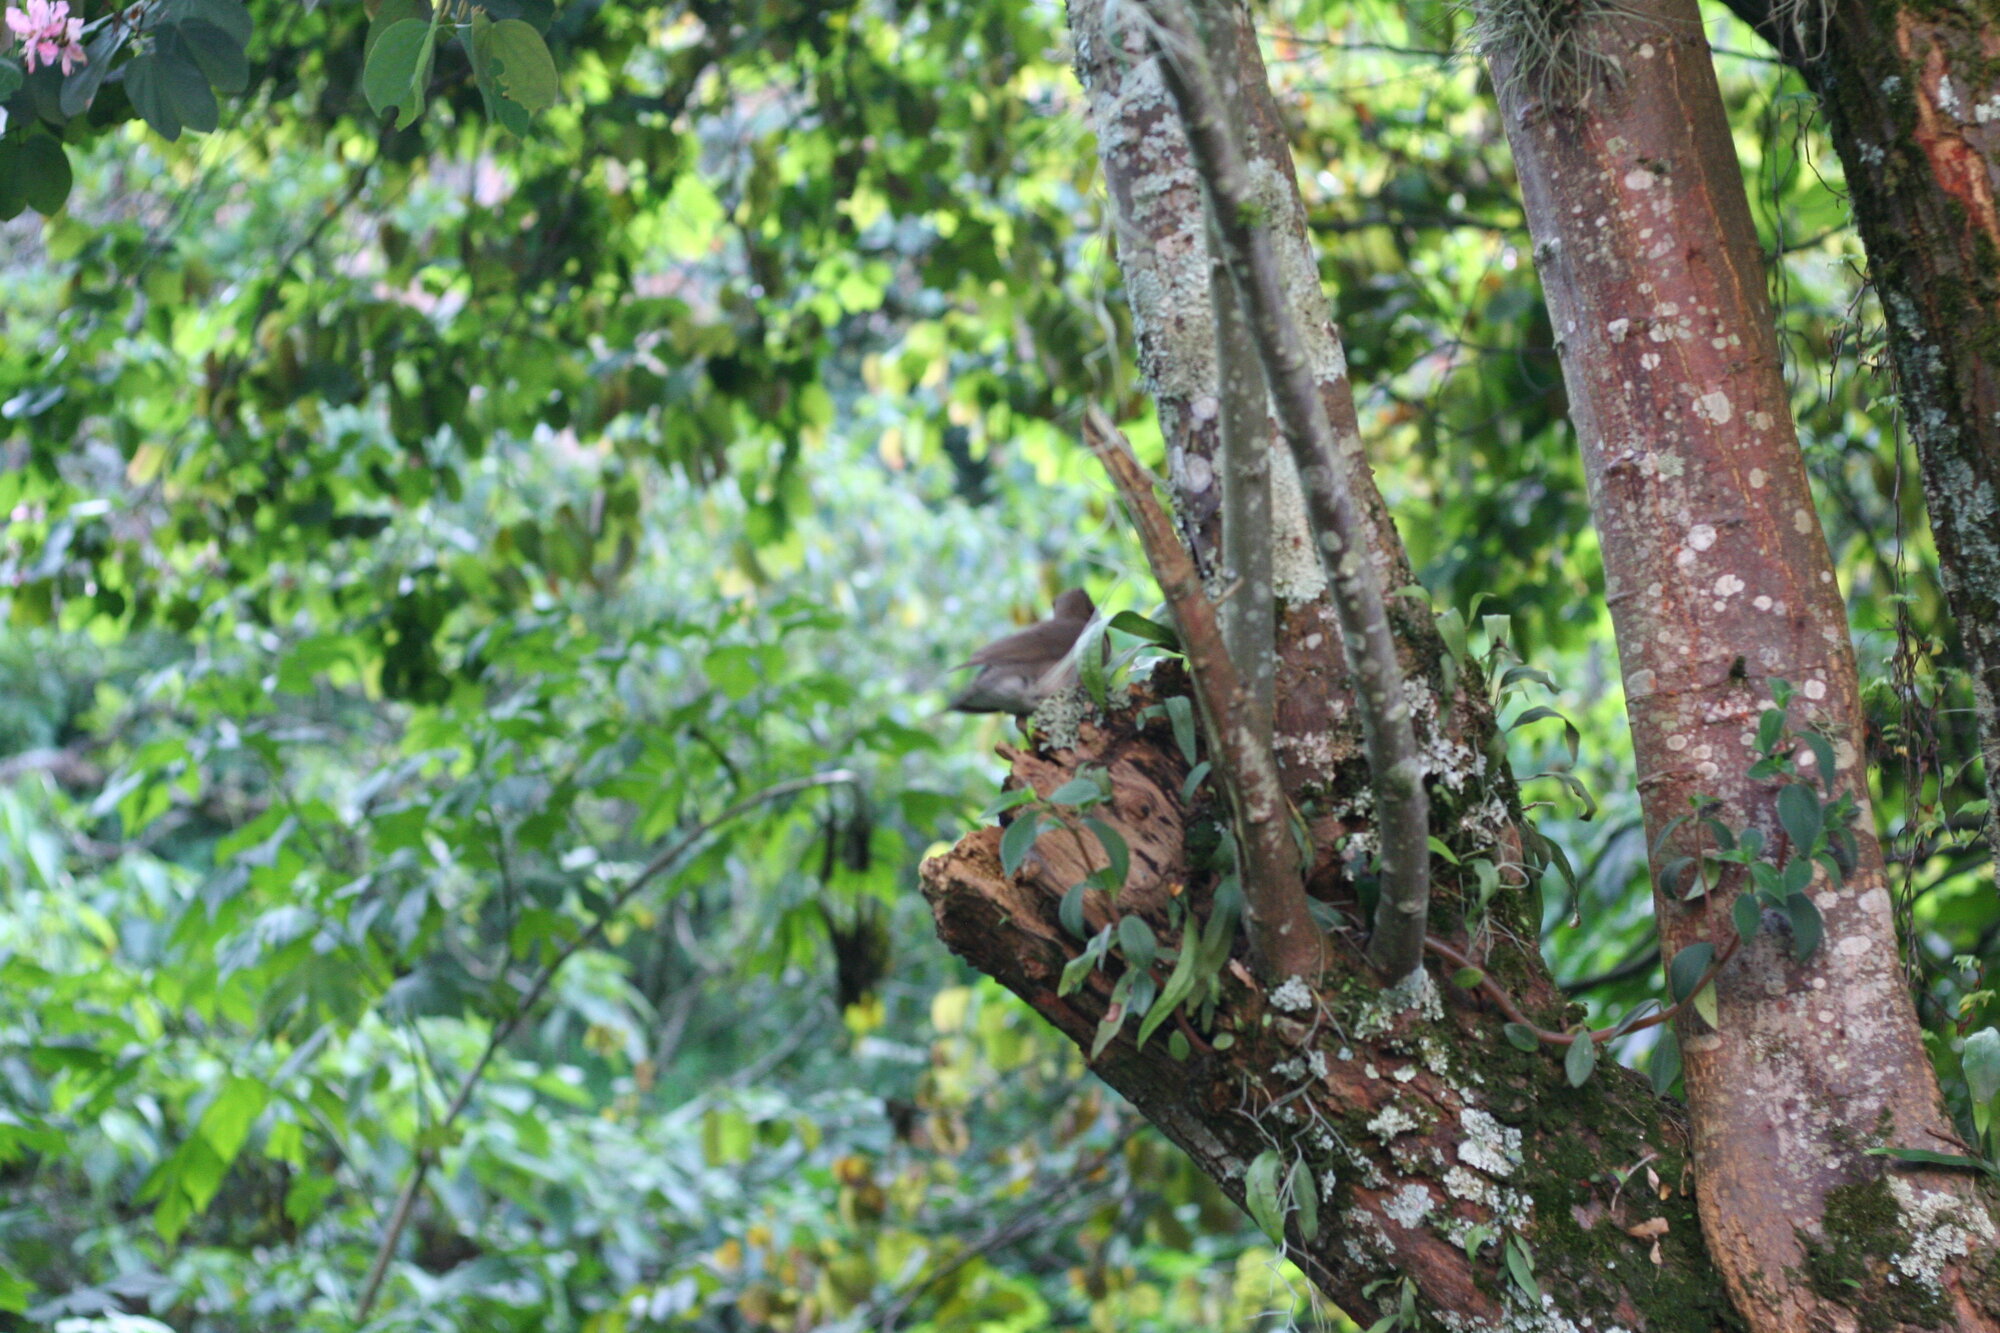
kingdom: Animalia
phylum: Chordata
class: Aves
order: Passeriformes
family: Turdidae
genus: Turdus
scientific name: Turdus ignobilis
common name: Black-billed thrush
